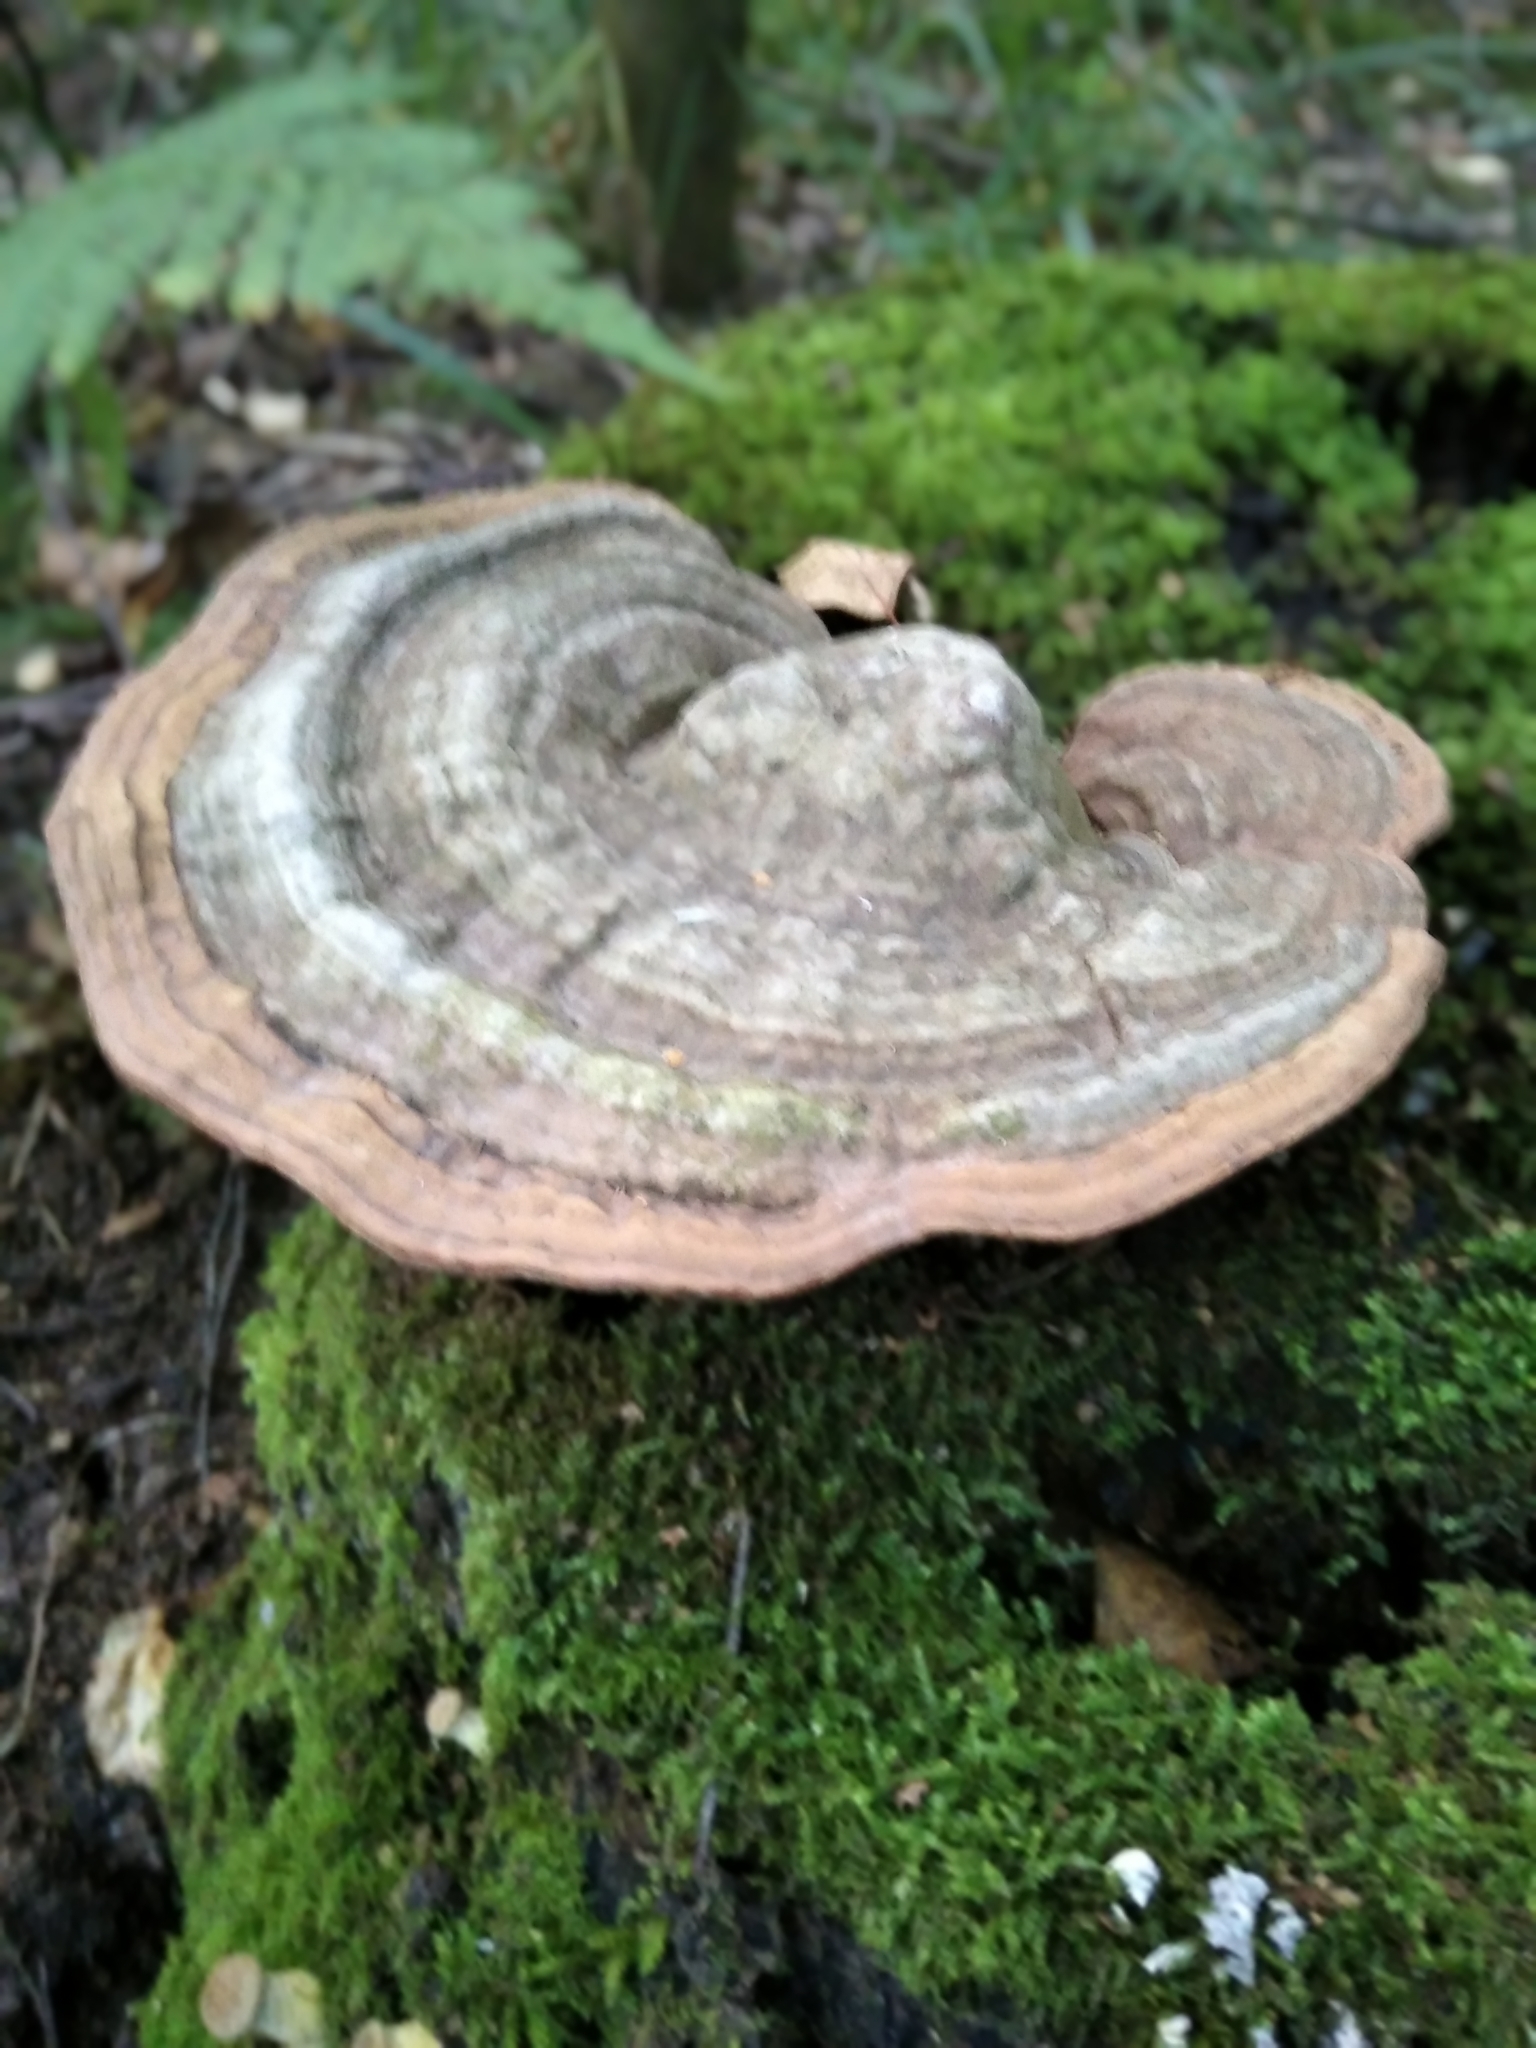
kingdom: Fungi
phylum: Basidiomycota
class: Agaricomycetes
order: Polyporales
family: Polyporaceae
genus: Ganoderma
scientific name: Ganoderma applanatum
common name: Artist's bracket
